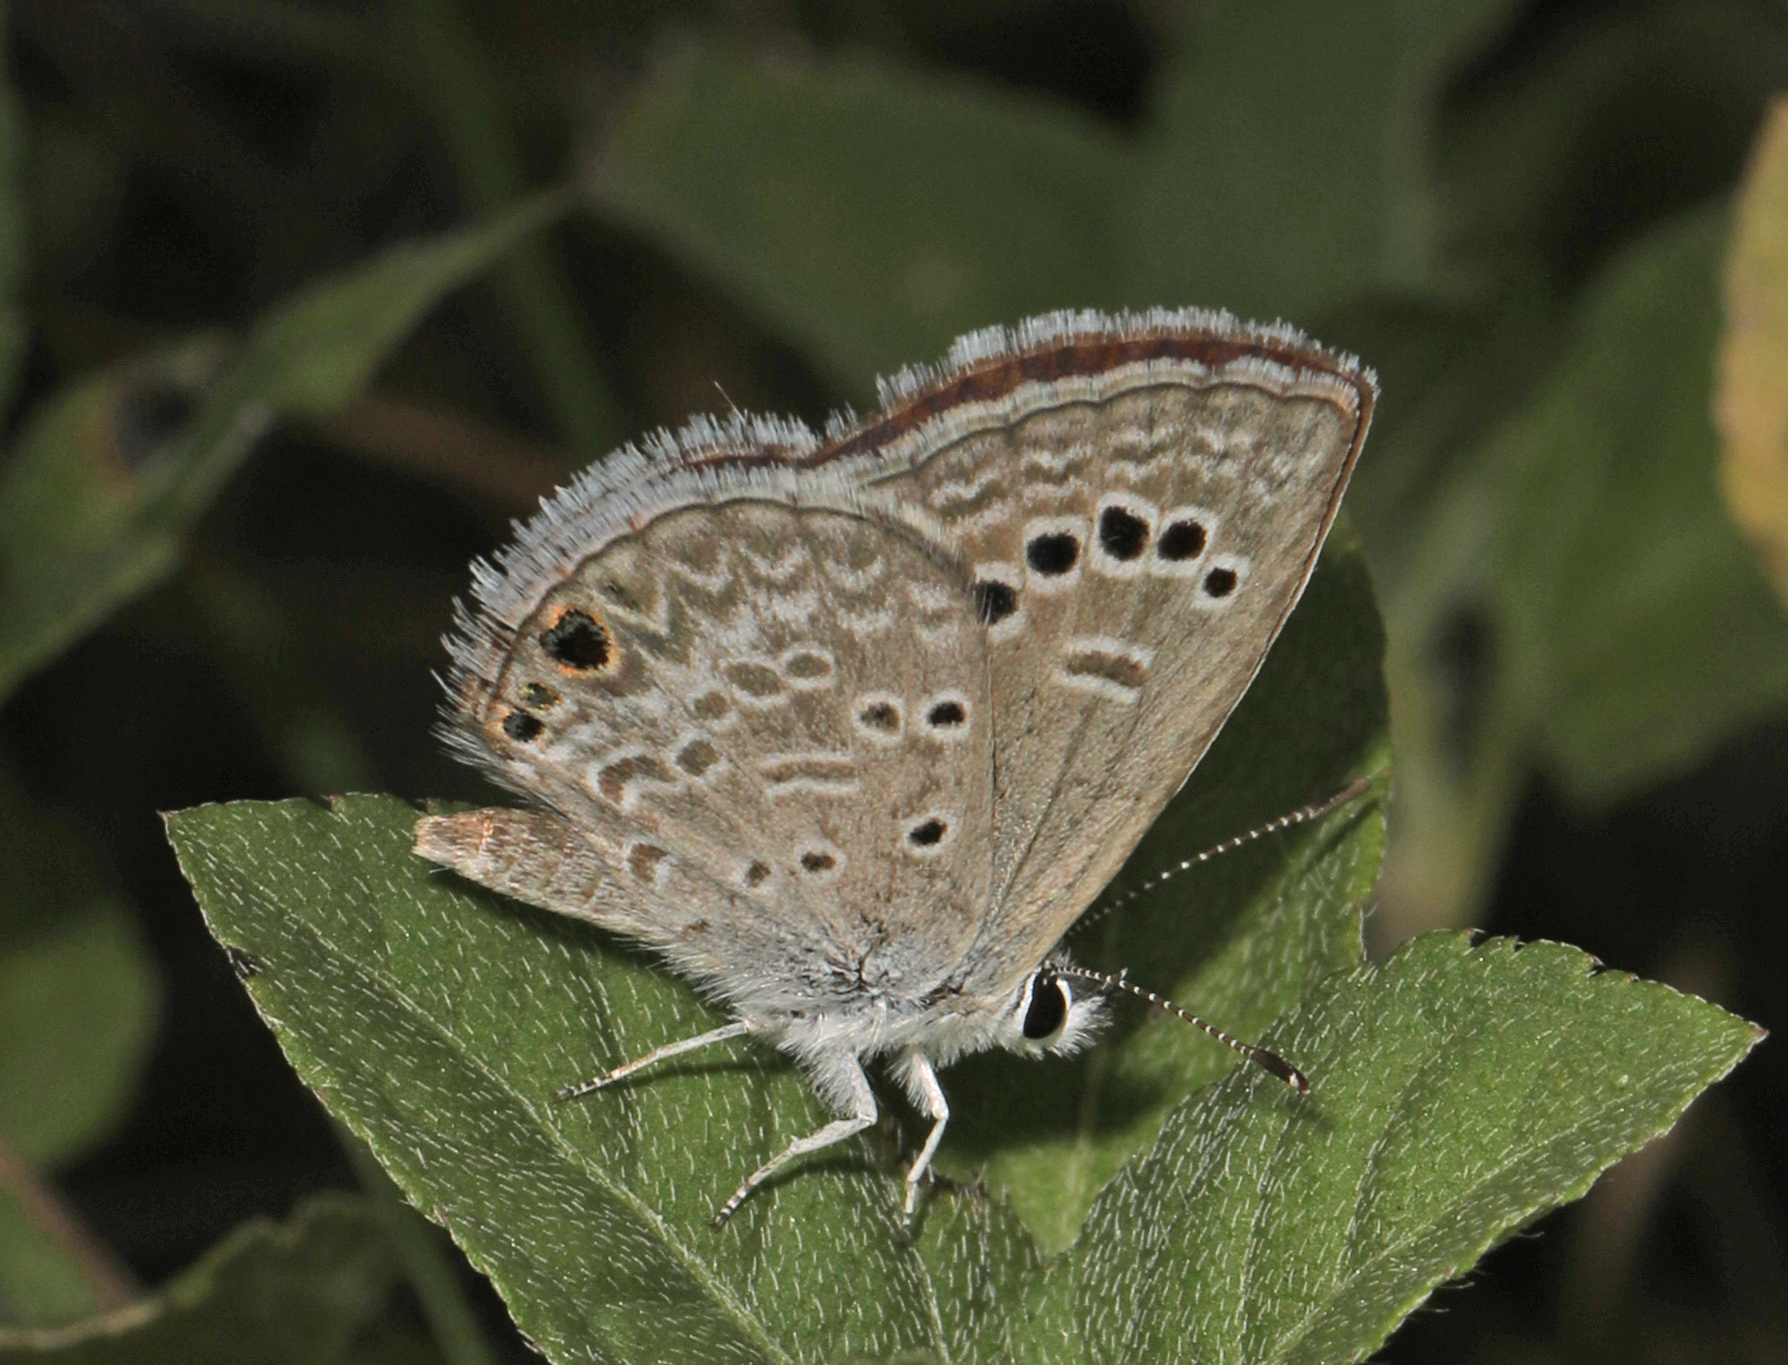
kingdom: Animalia
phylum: Arthropoda
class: Insecta
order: Lepidoptera
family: Lycaenidae
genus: Echinargus
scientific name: Echinargus isola
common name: Reakirt's blue
